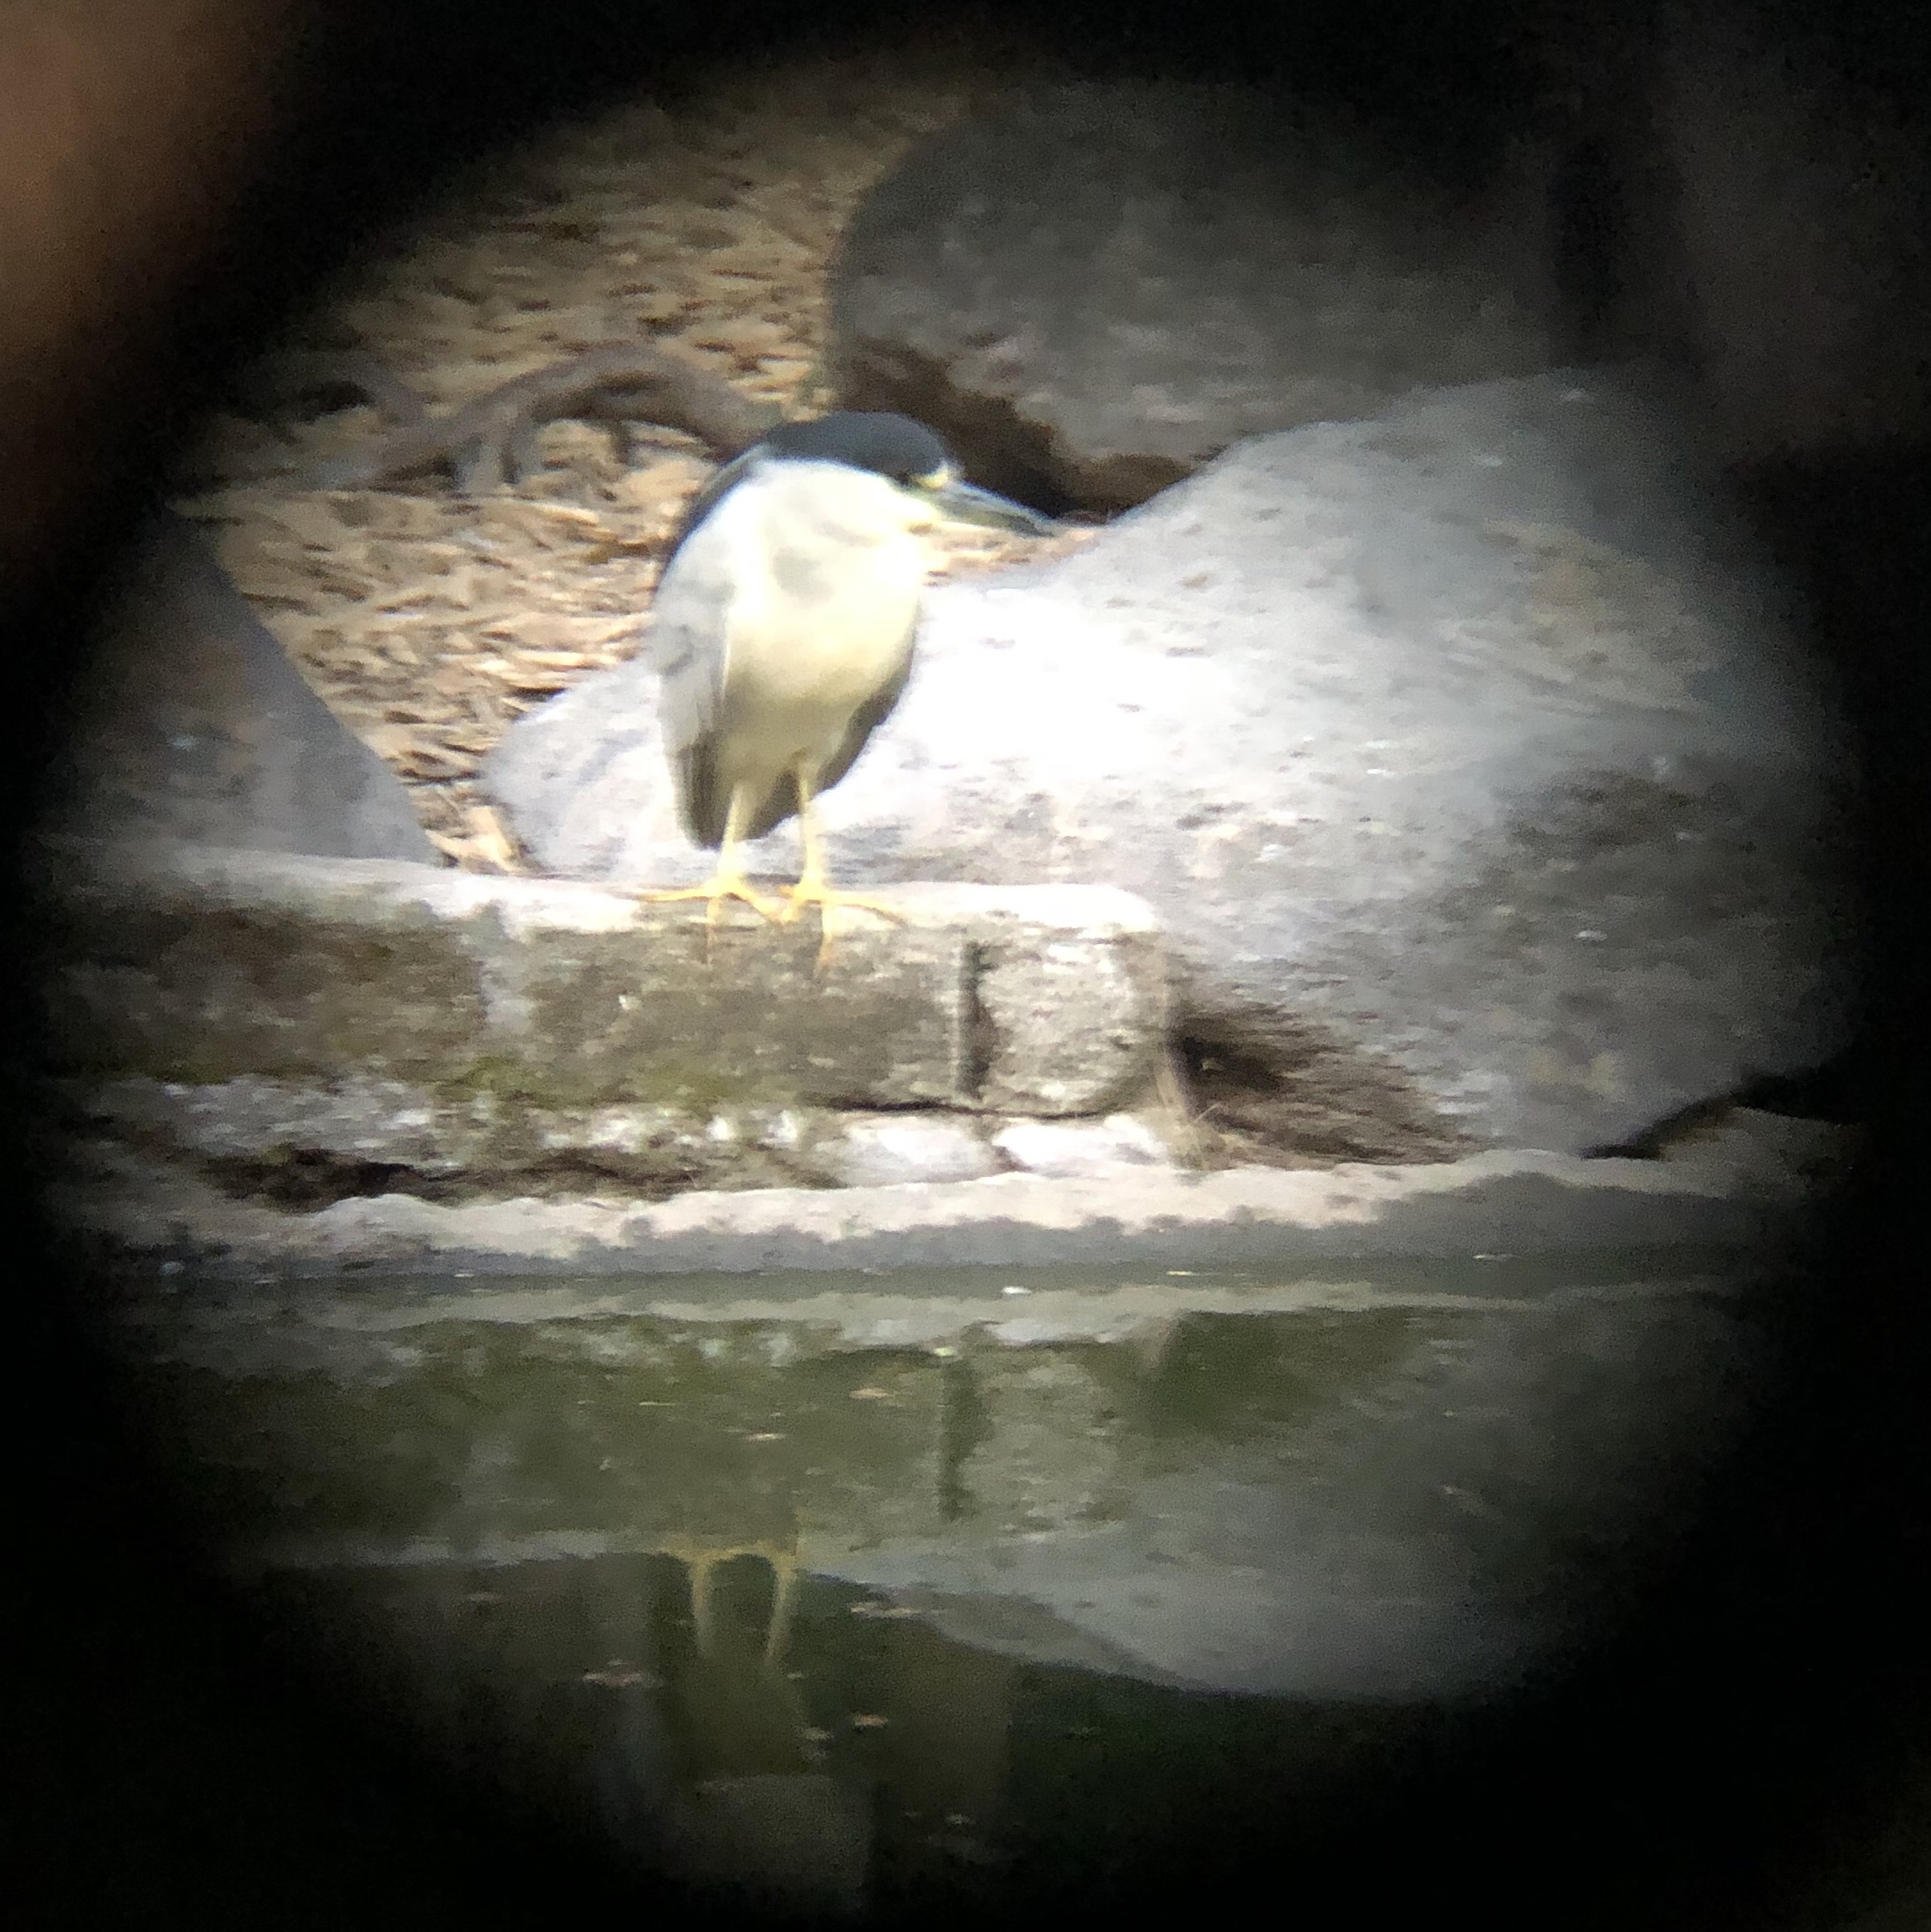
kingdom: Animalia
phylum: Chordata
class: Aves
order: Pelecaniformes
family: Ardeidae
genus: Nycticorax
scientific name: Nycticorax nycticorax
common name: Black-crowned night heron
